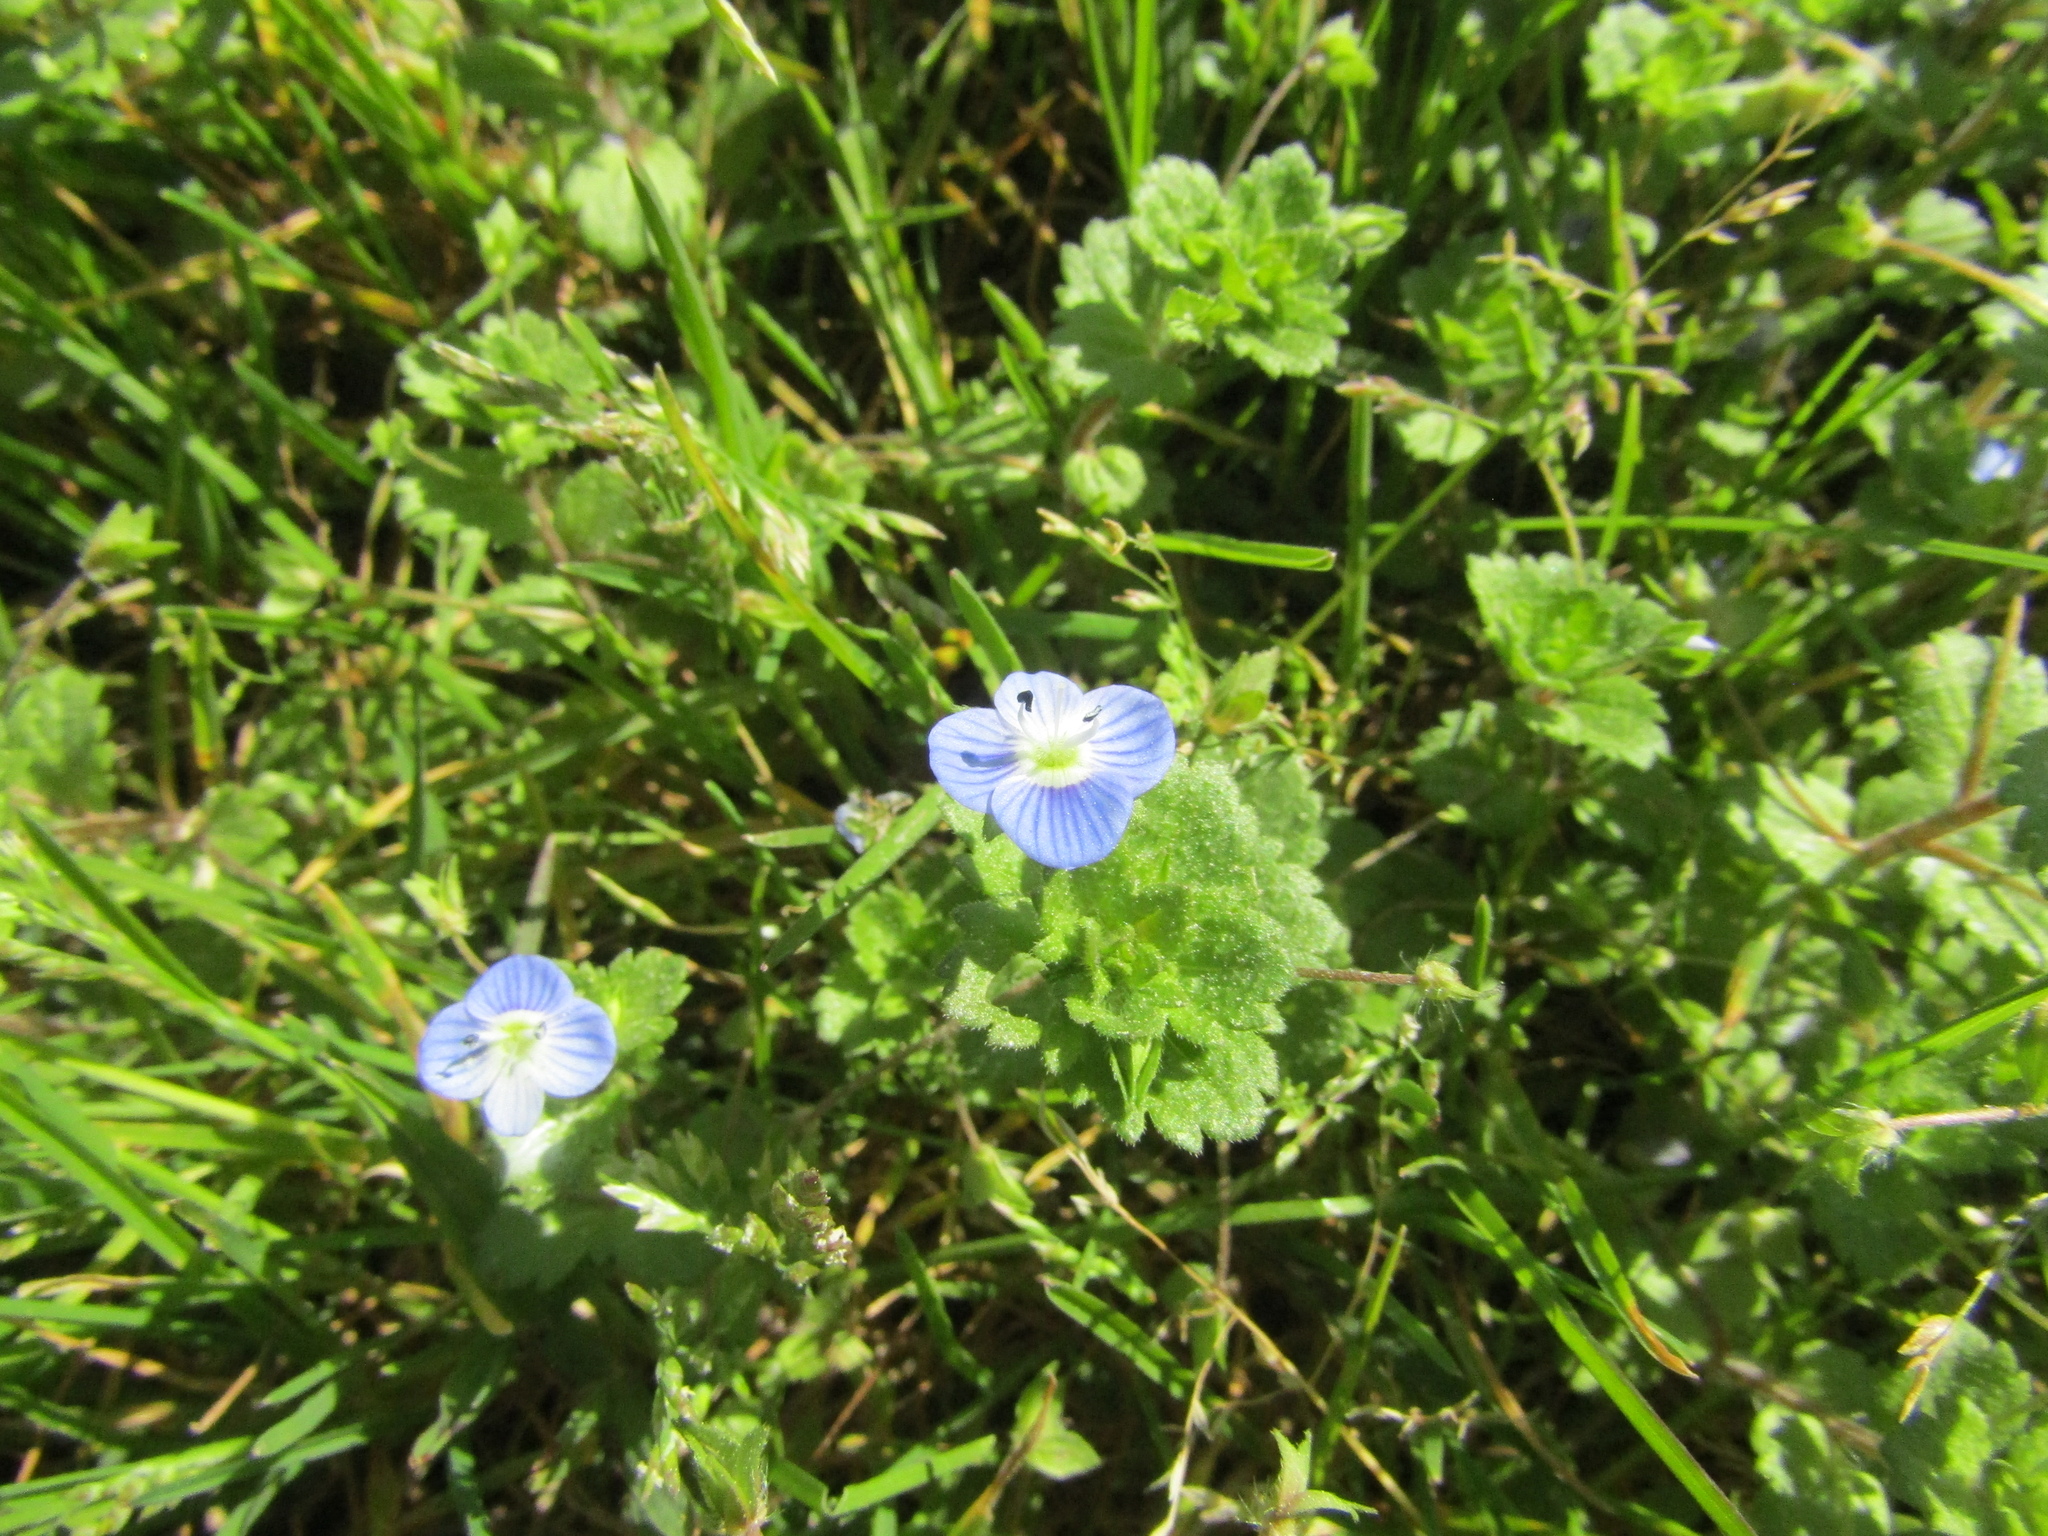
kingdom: Plantae
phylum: Tracheophyta
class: Magnoliopsida
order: Lamiales
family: Plantaginaceae
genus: Veronica
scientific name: Veronica persica
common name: Common field-speedwell
